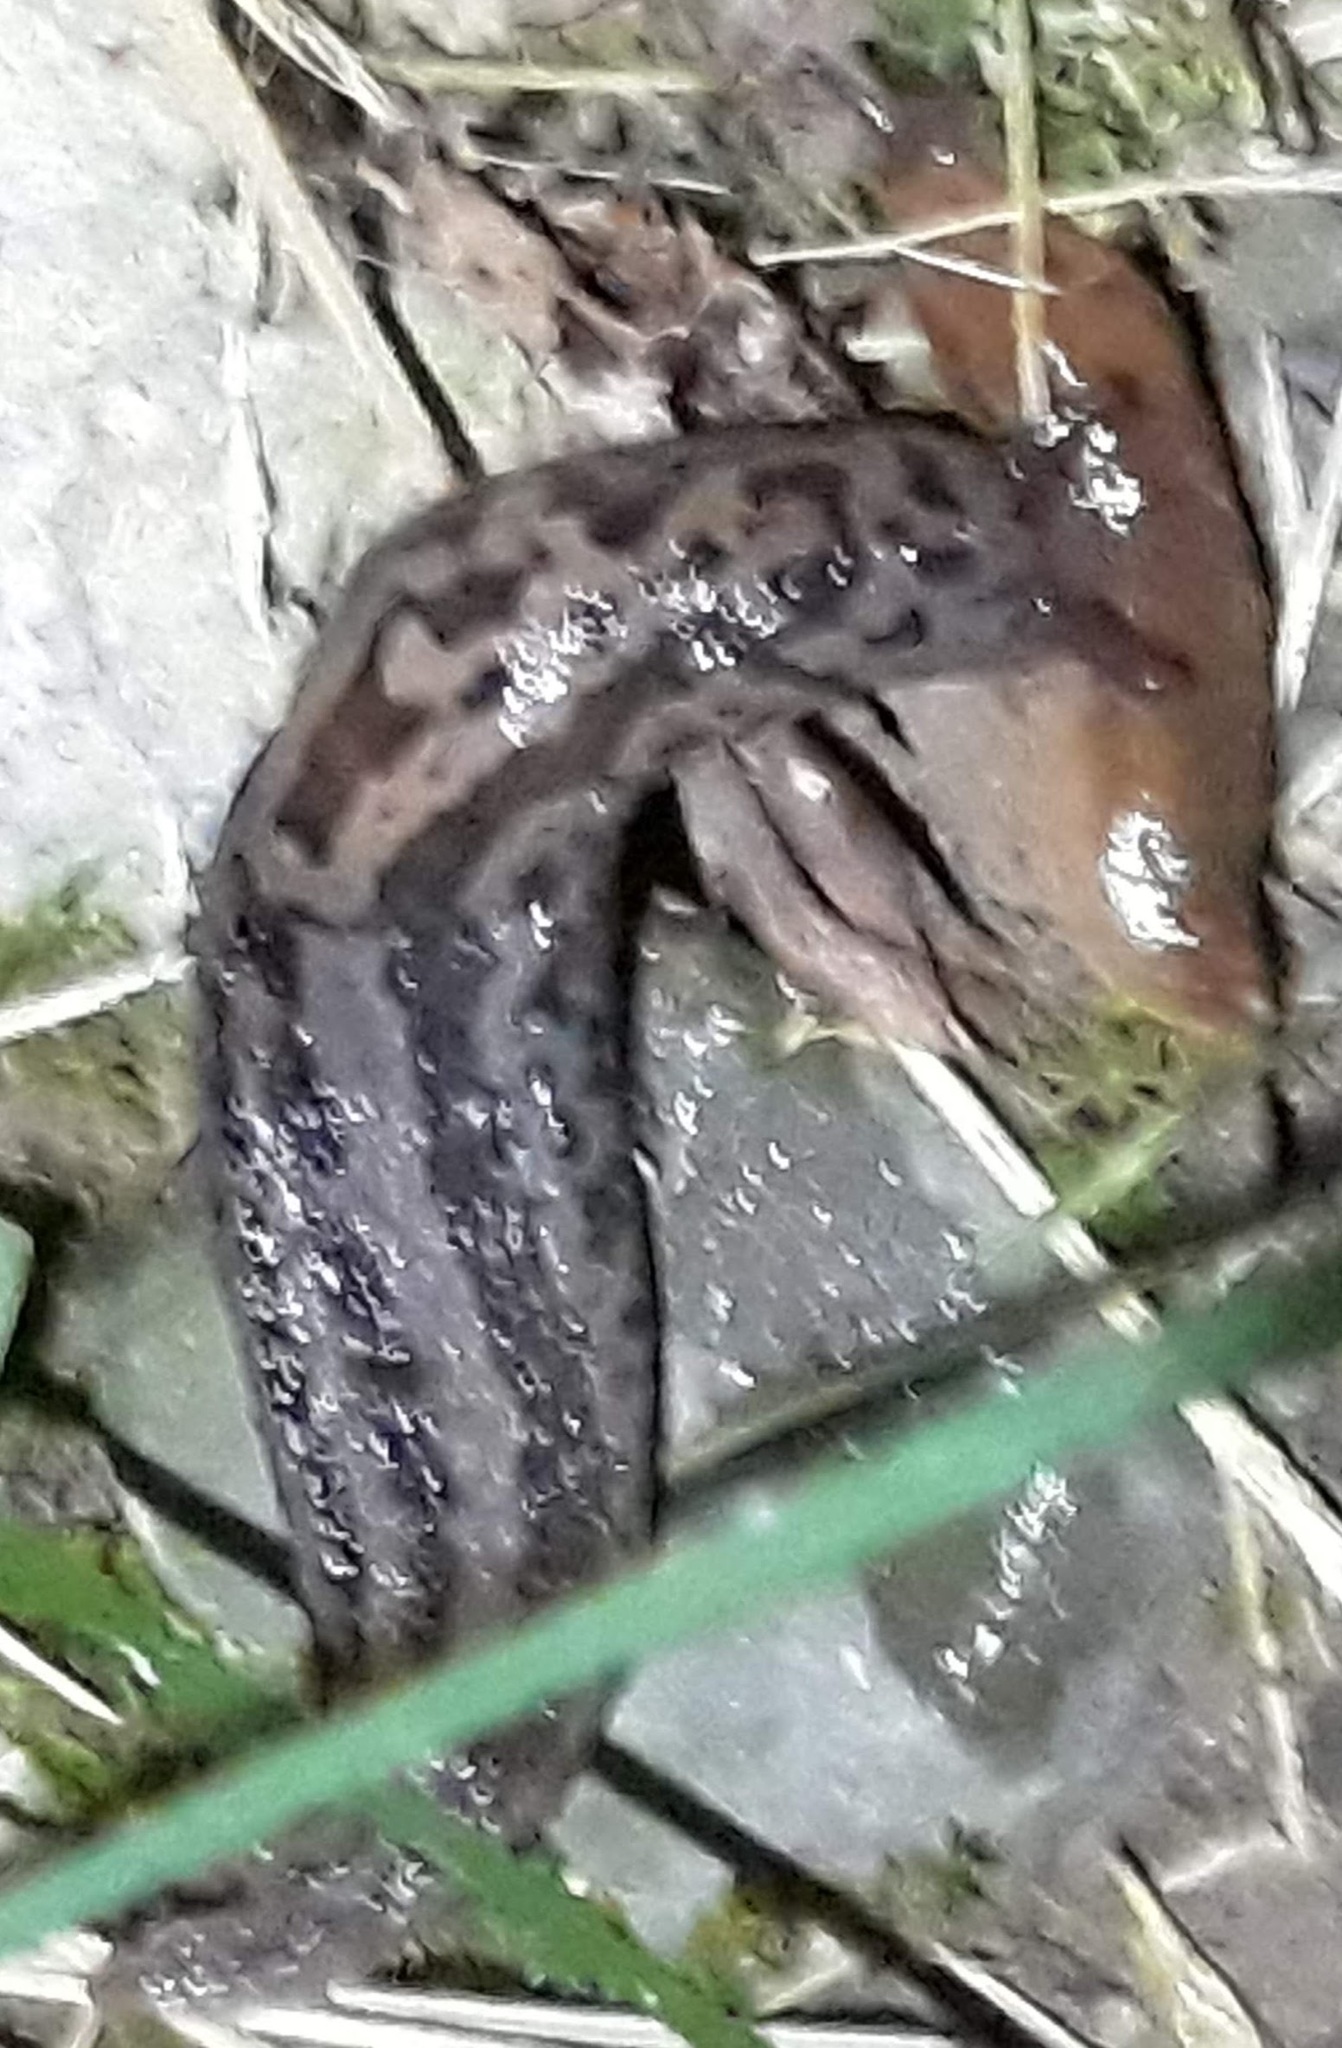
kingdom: Animalia
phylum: Mollusca
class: Gastropoda
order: Stylommatophora
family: Limacidae
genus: Limax
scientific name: Limax maximus
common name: Great grey slug
